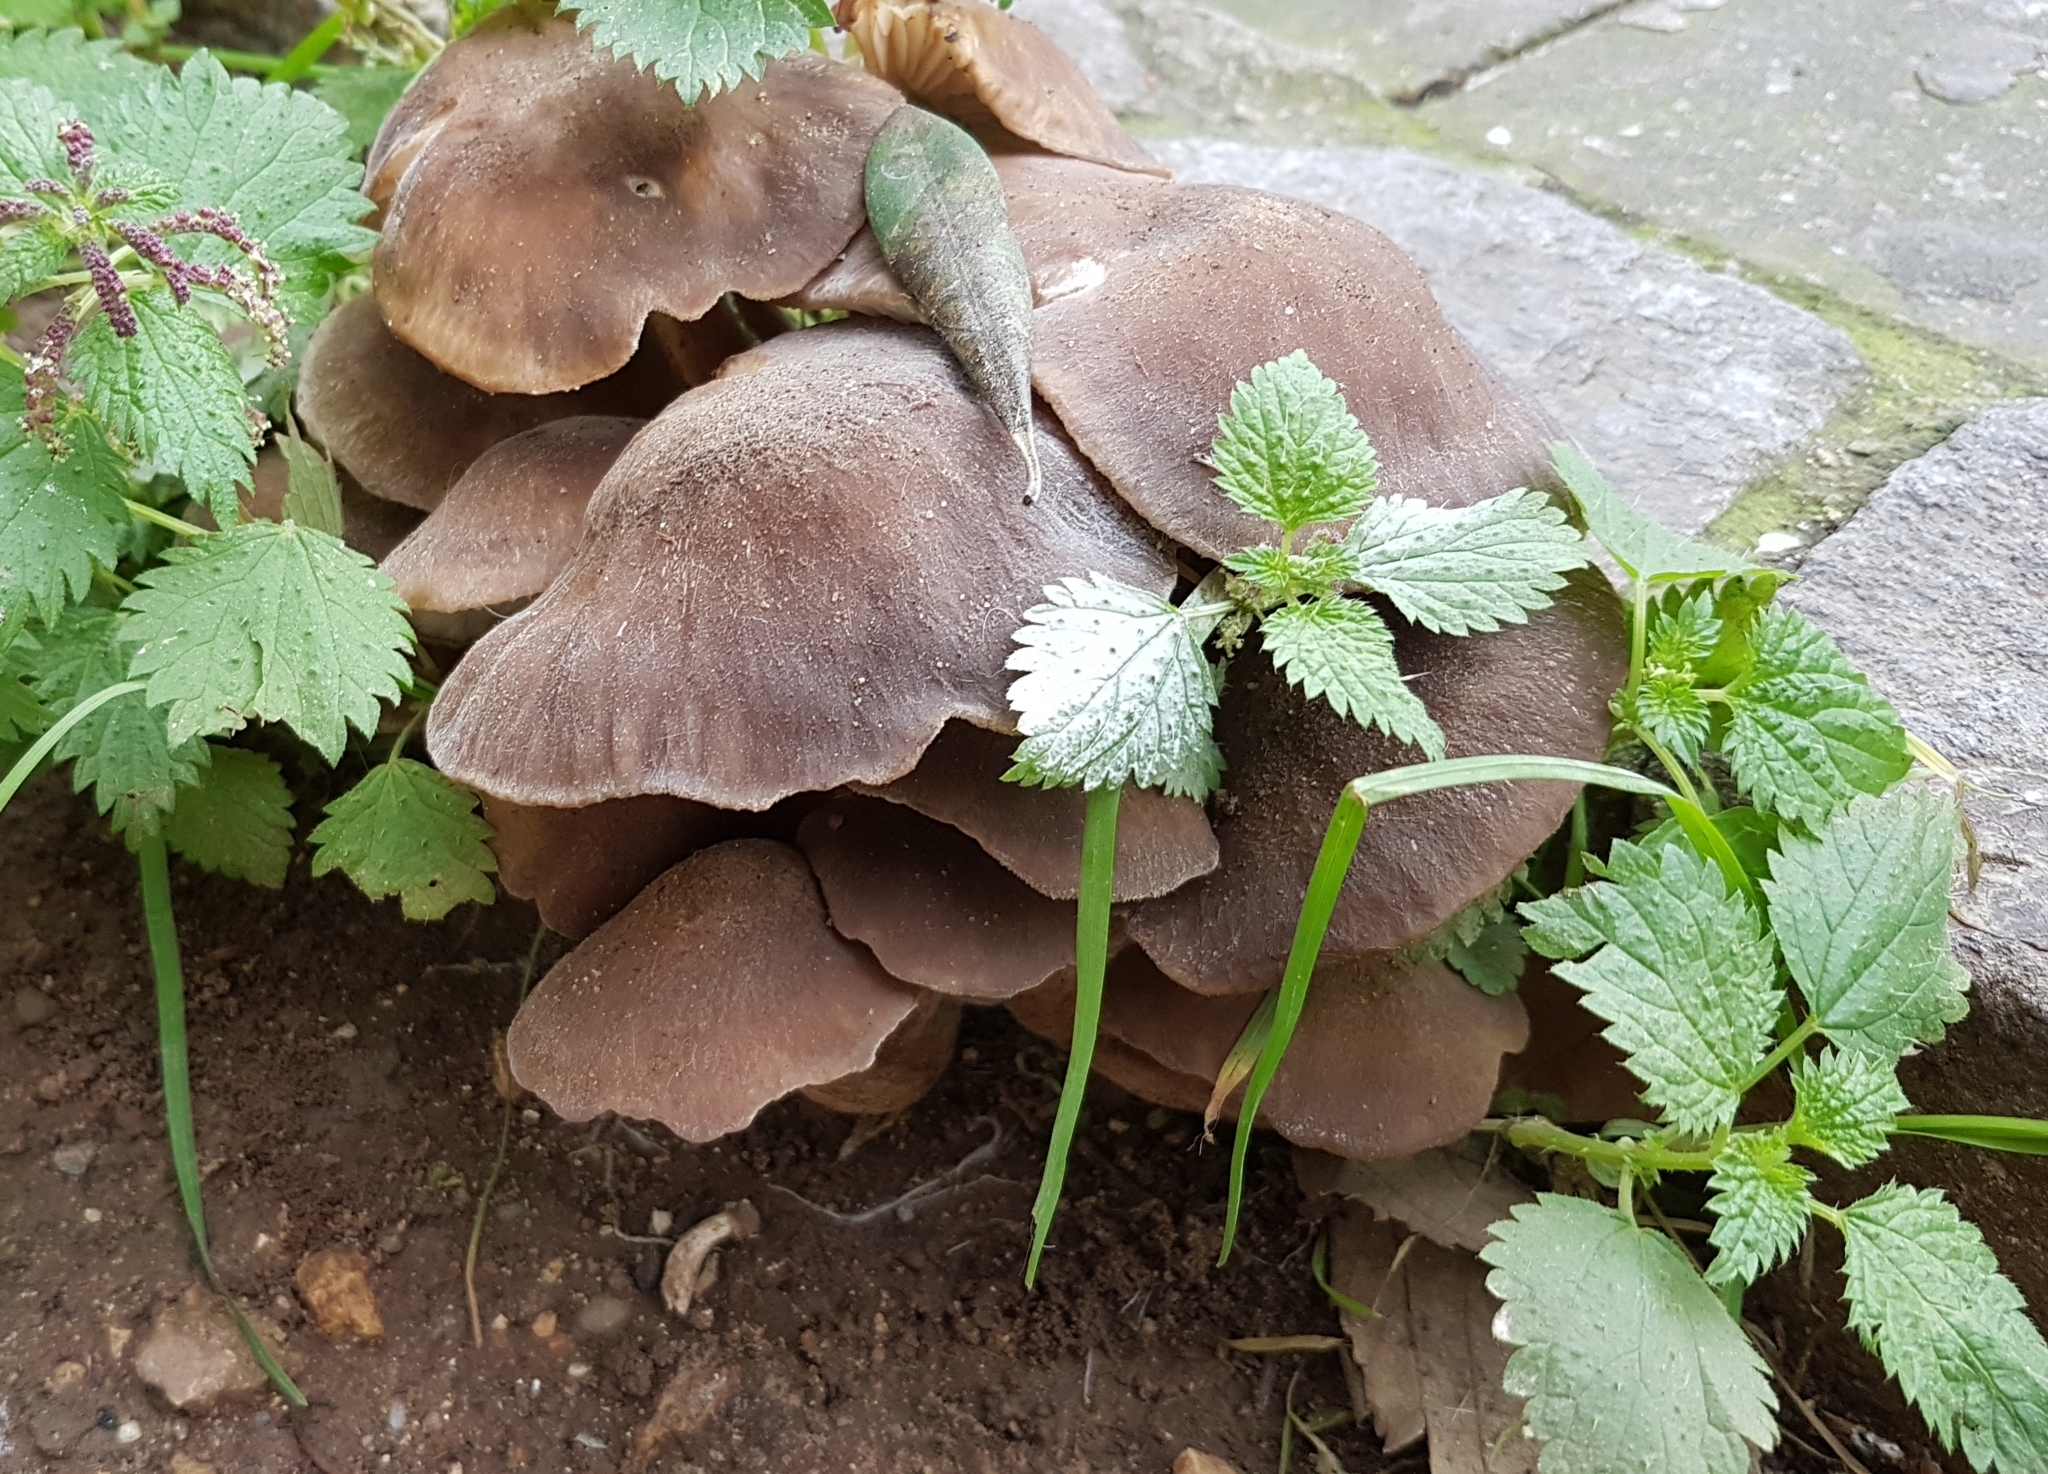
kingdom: Fungi
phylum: Basidiomycota
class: Agaricomycetes
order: Agaricales
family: Lyophyllaceae
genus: Lyophyllum
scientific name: Lyophyllum decastes
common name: Clustered domecap
